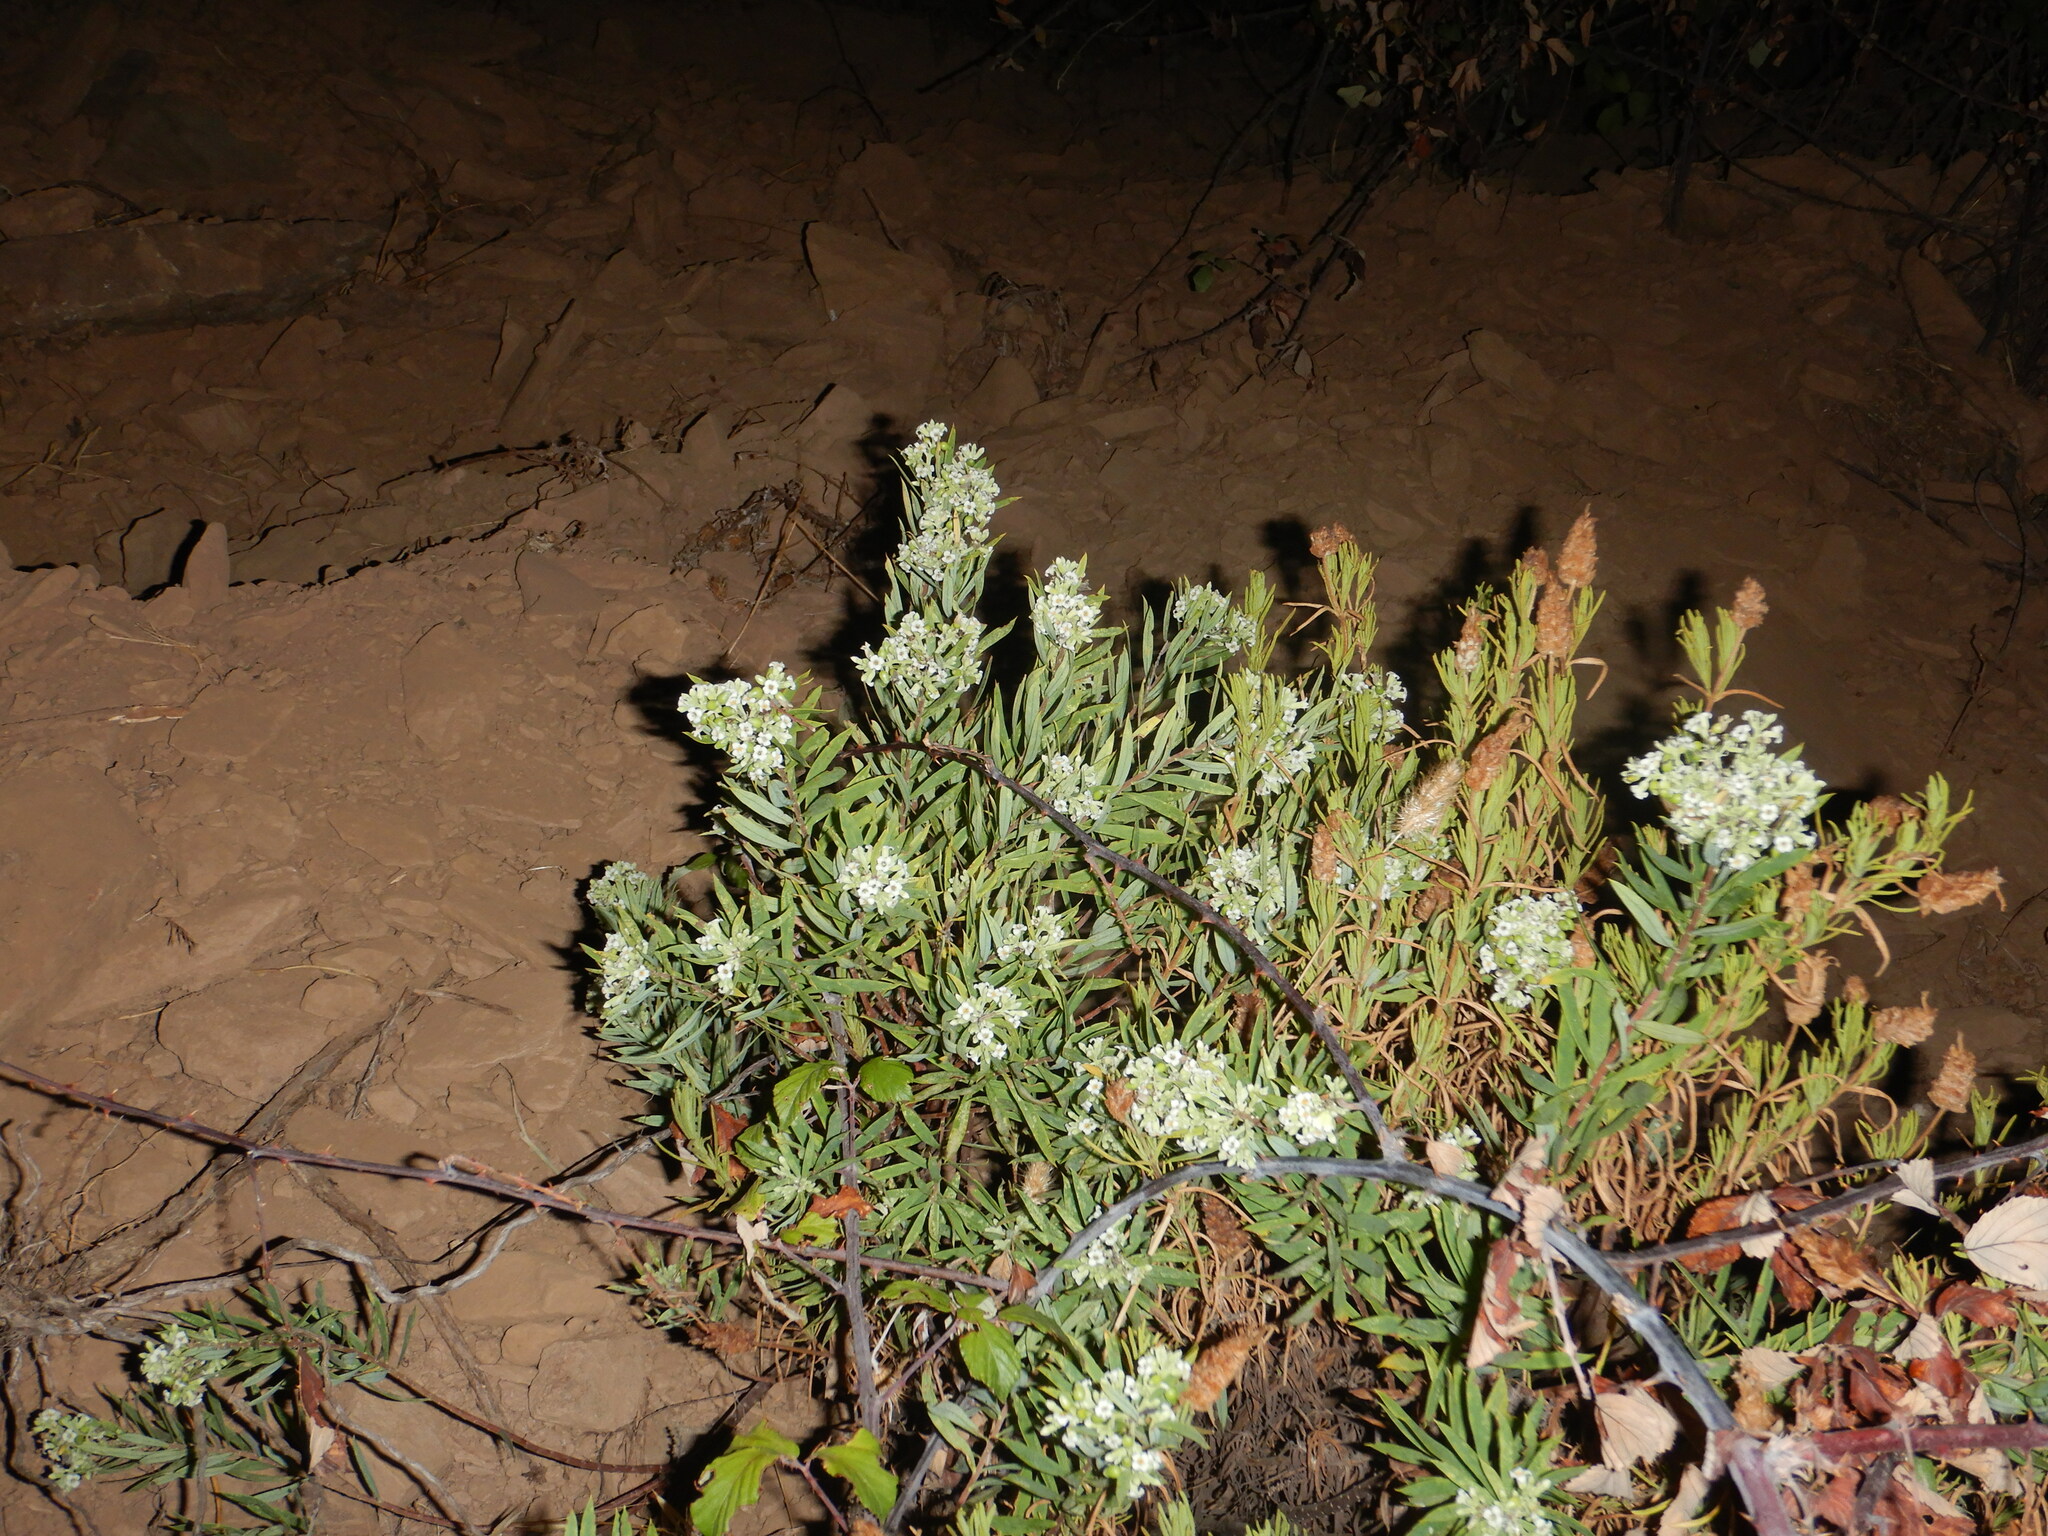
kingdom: Plantae
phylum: Tracheophyta
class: Magnoliopsida
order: Malvales
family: Thymelaeaceae
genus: Daphne
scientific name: Daphne gnidium
